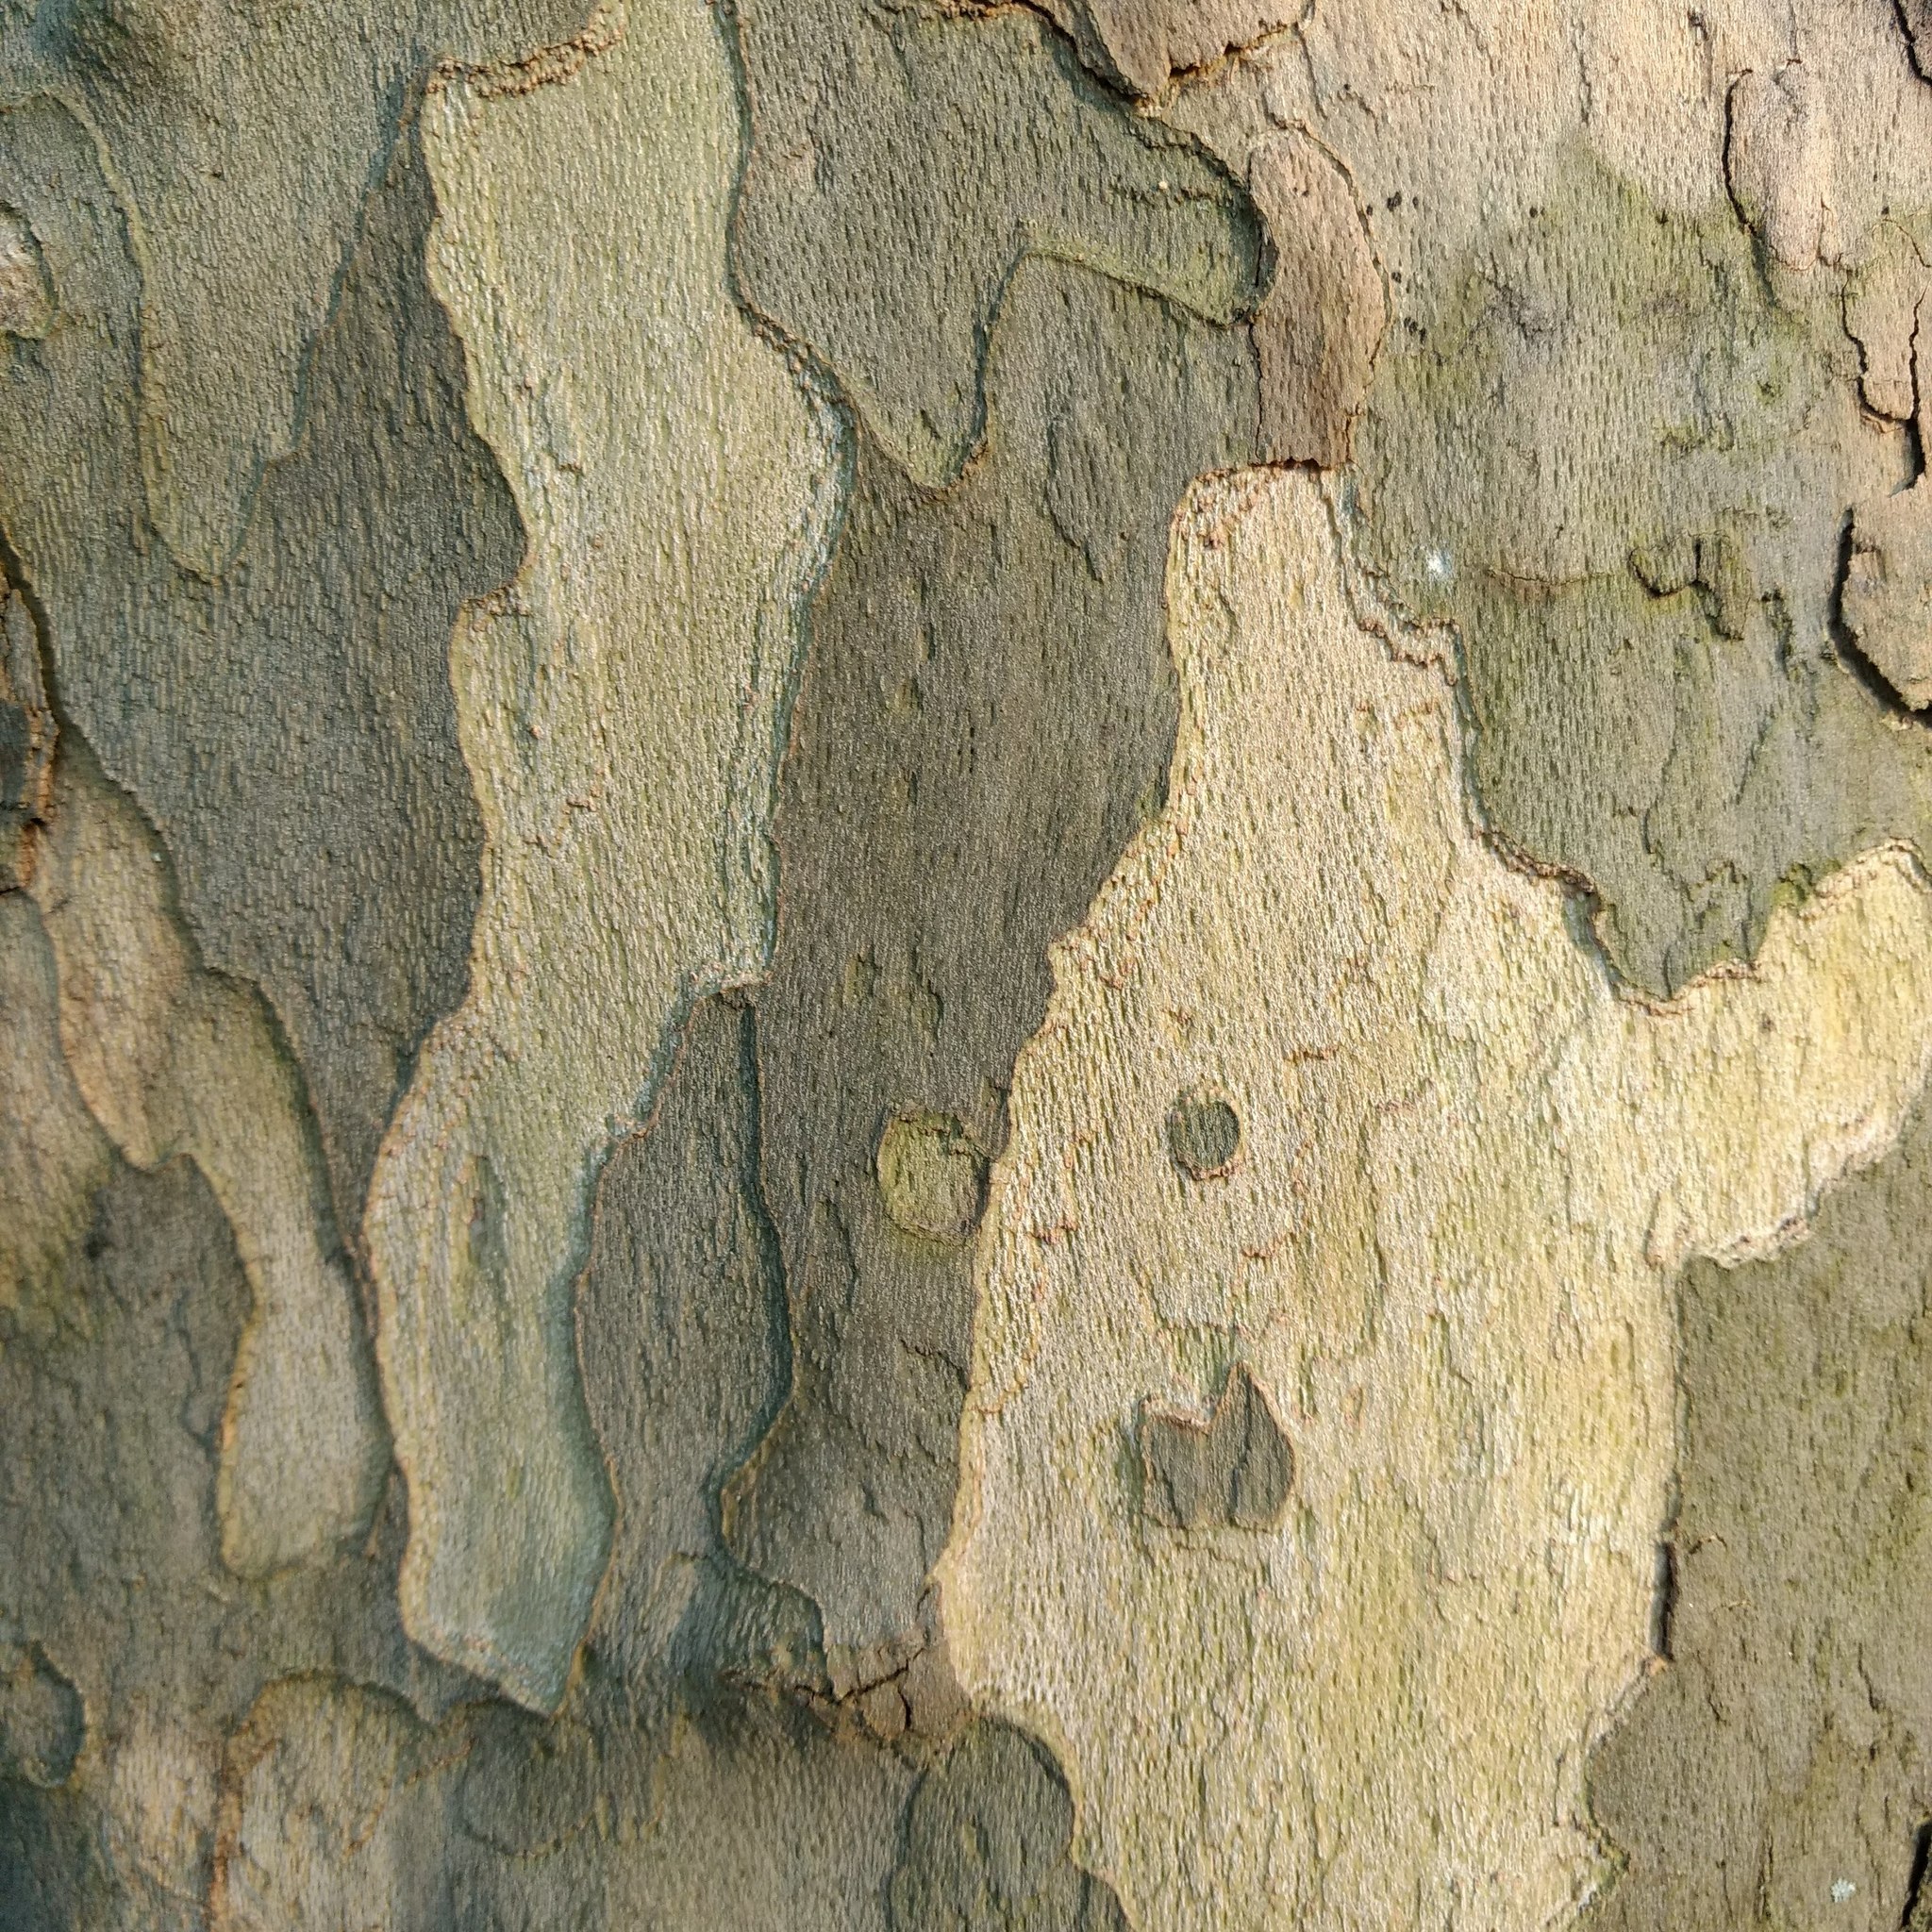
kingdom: Plantae
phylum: Tracheophyta
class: Magnoliopsida
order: Proteales
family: Platanaceae
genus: Platanus
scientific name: Platanus occidentalis
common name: American sycamore
